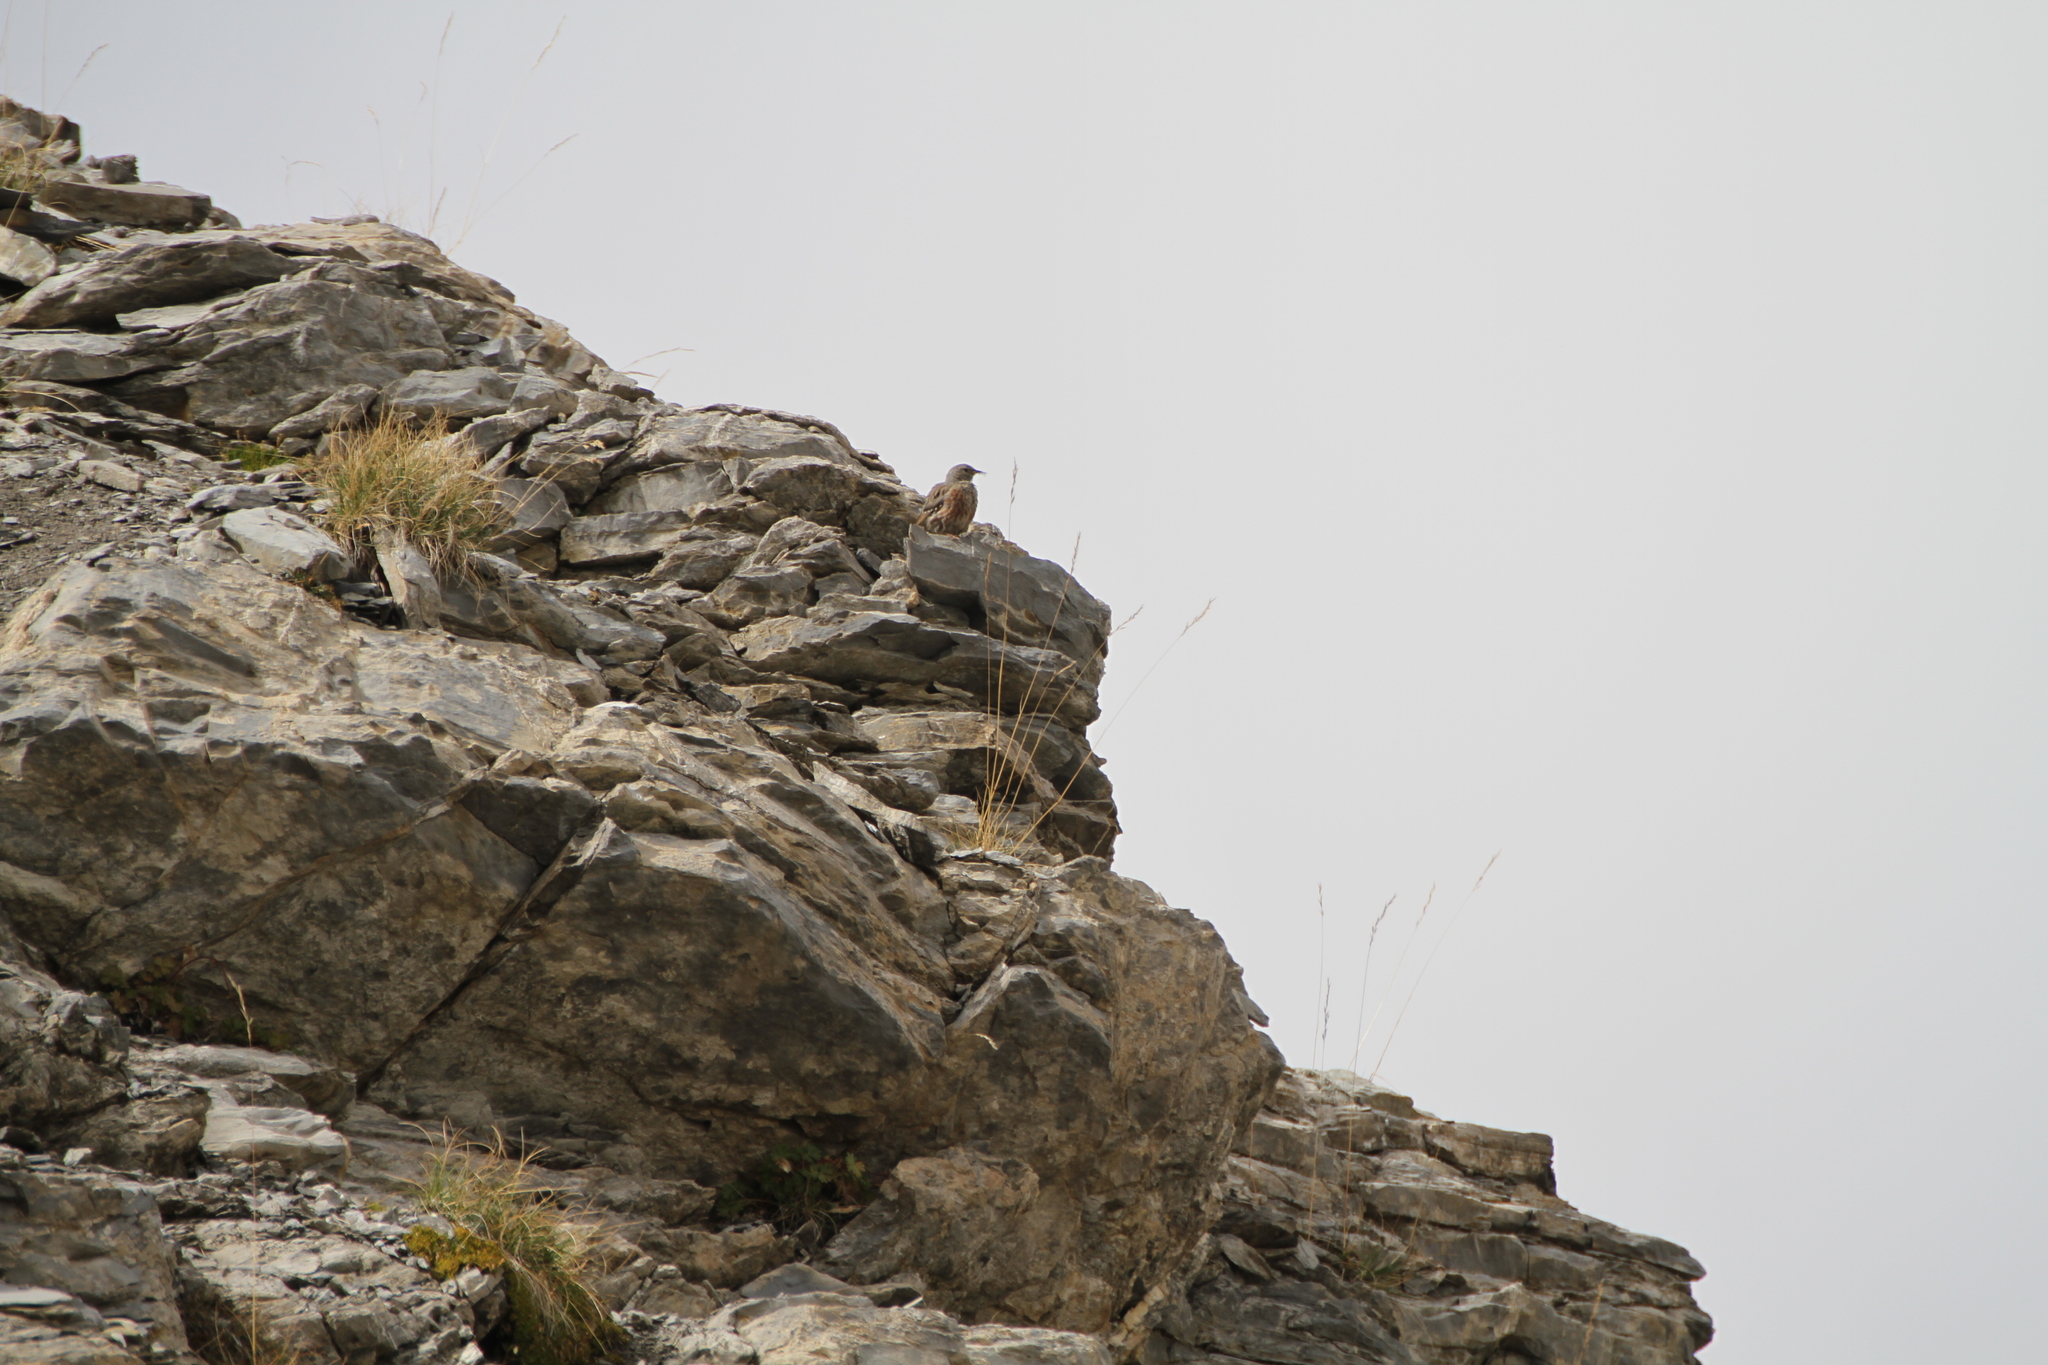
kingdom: Animalia
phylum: Chordata
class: Aves
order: Passeriformes
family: Prunellidae
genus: Prunella
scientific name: Prunella collaris
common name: Alpine accentor
